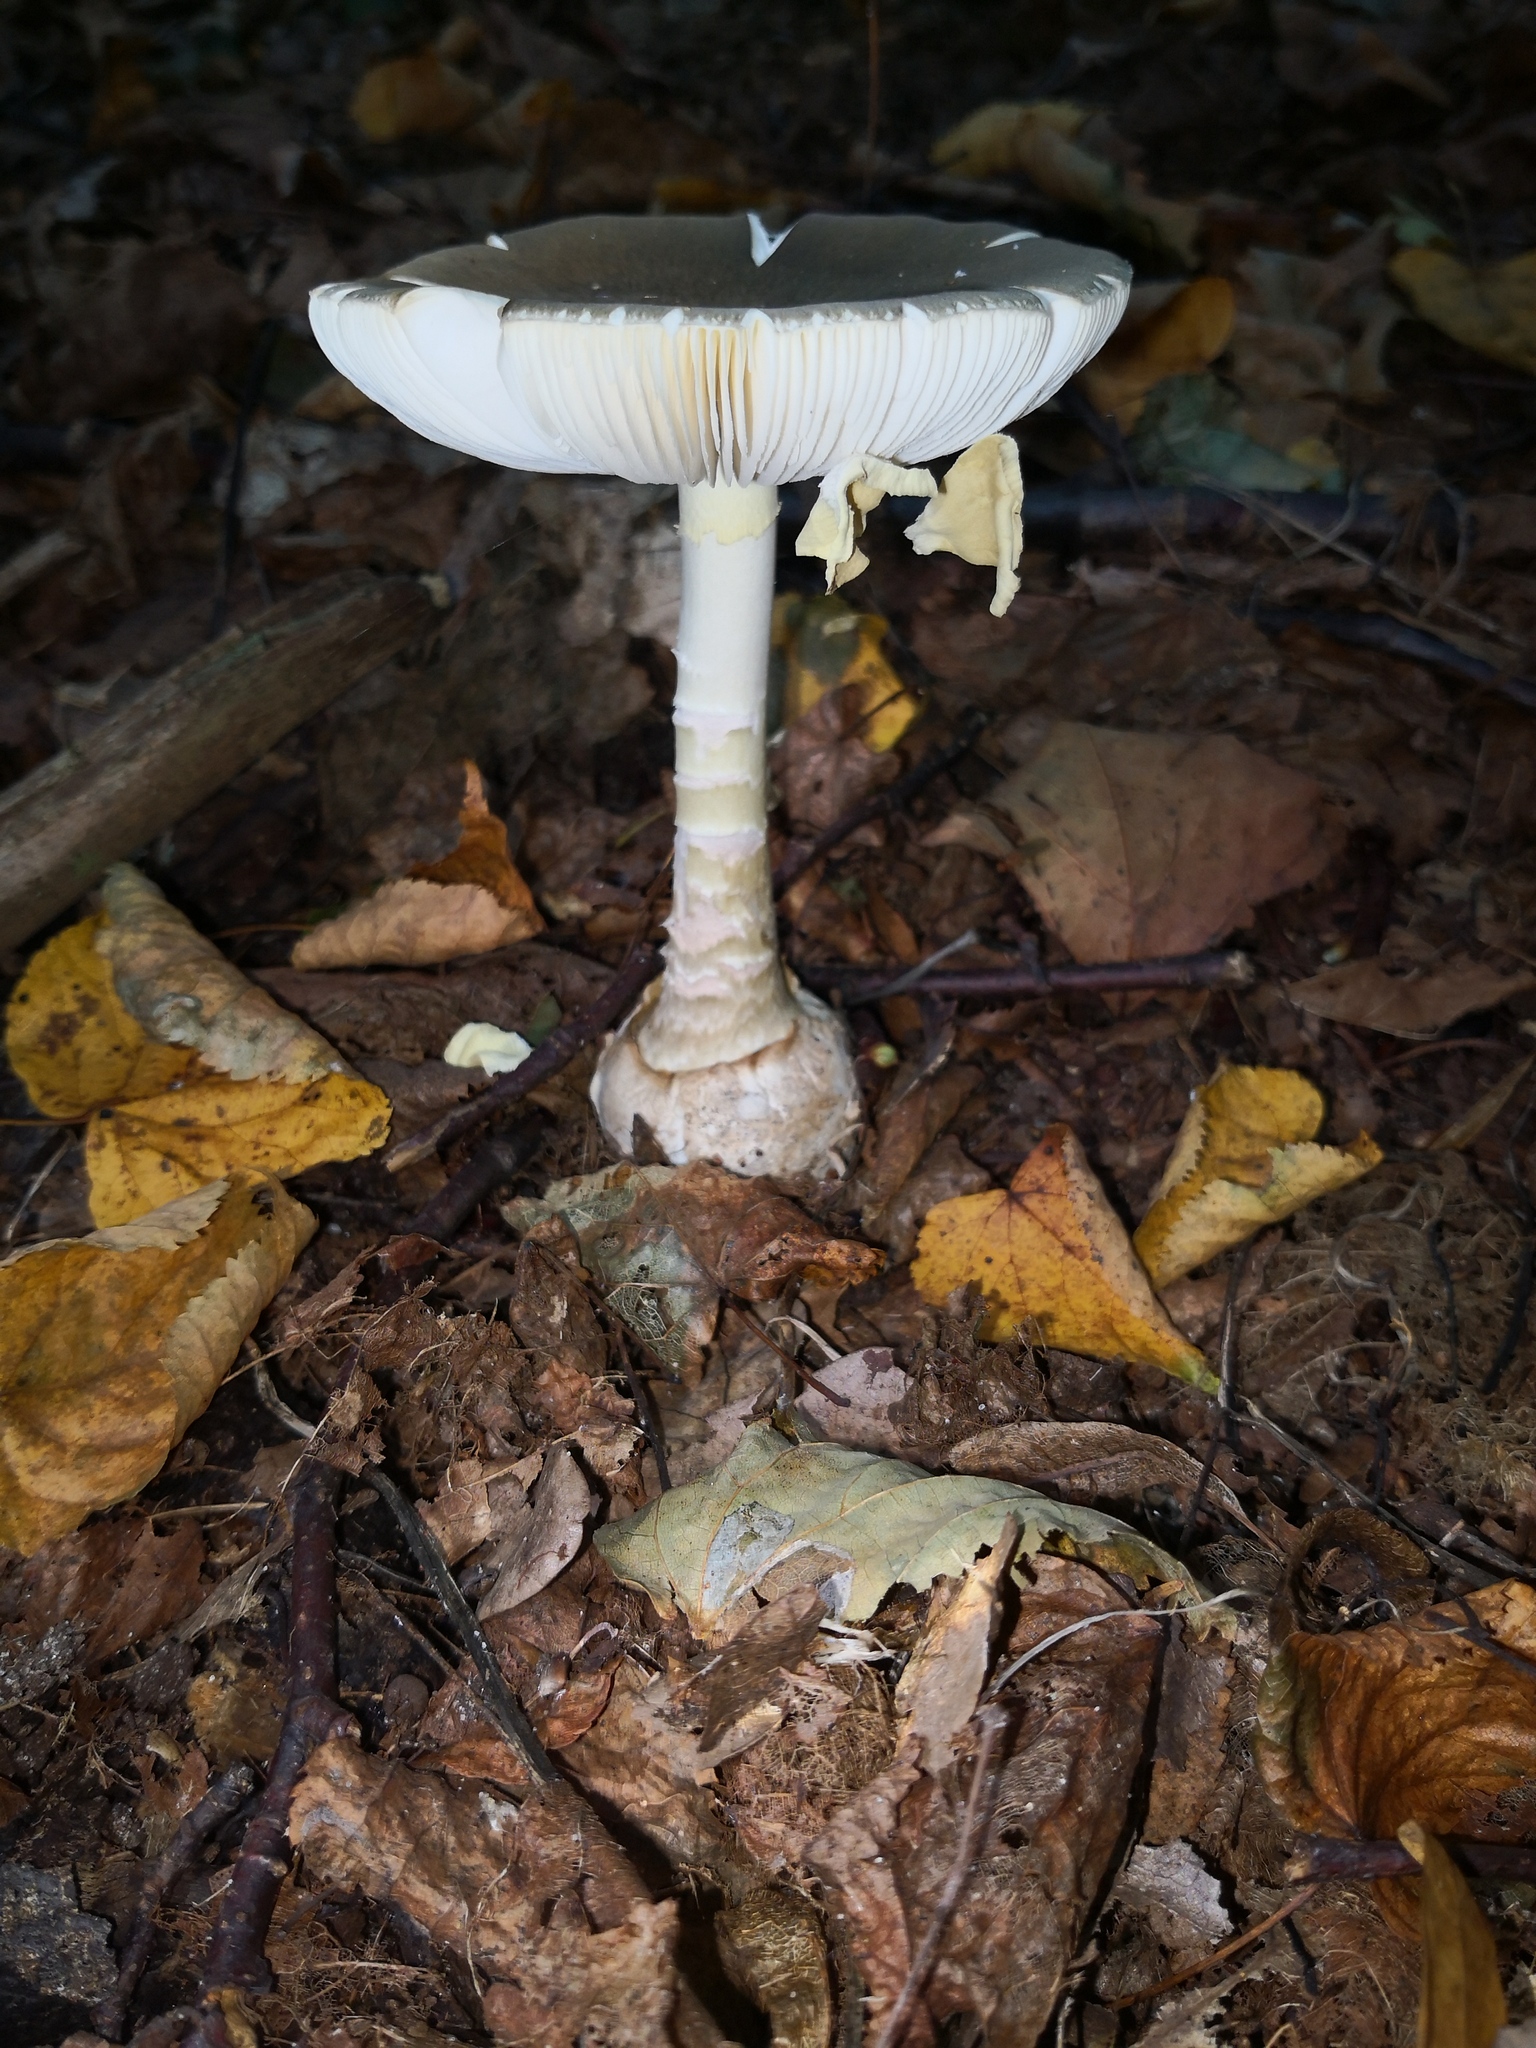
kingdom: Fungi
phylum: Basidiomycota
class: Agaricomycetes
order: Agaricales
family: Amanitaceae
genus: Amanita
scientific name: Amanita phalloides
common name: Death cap
